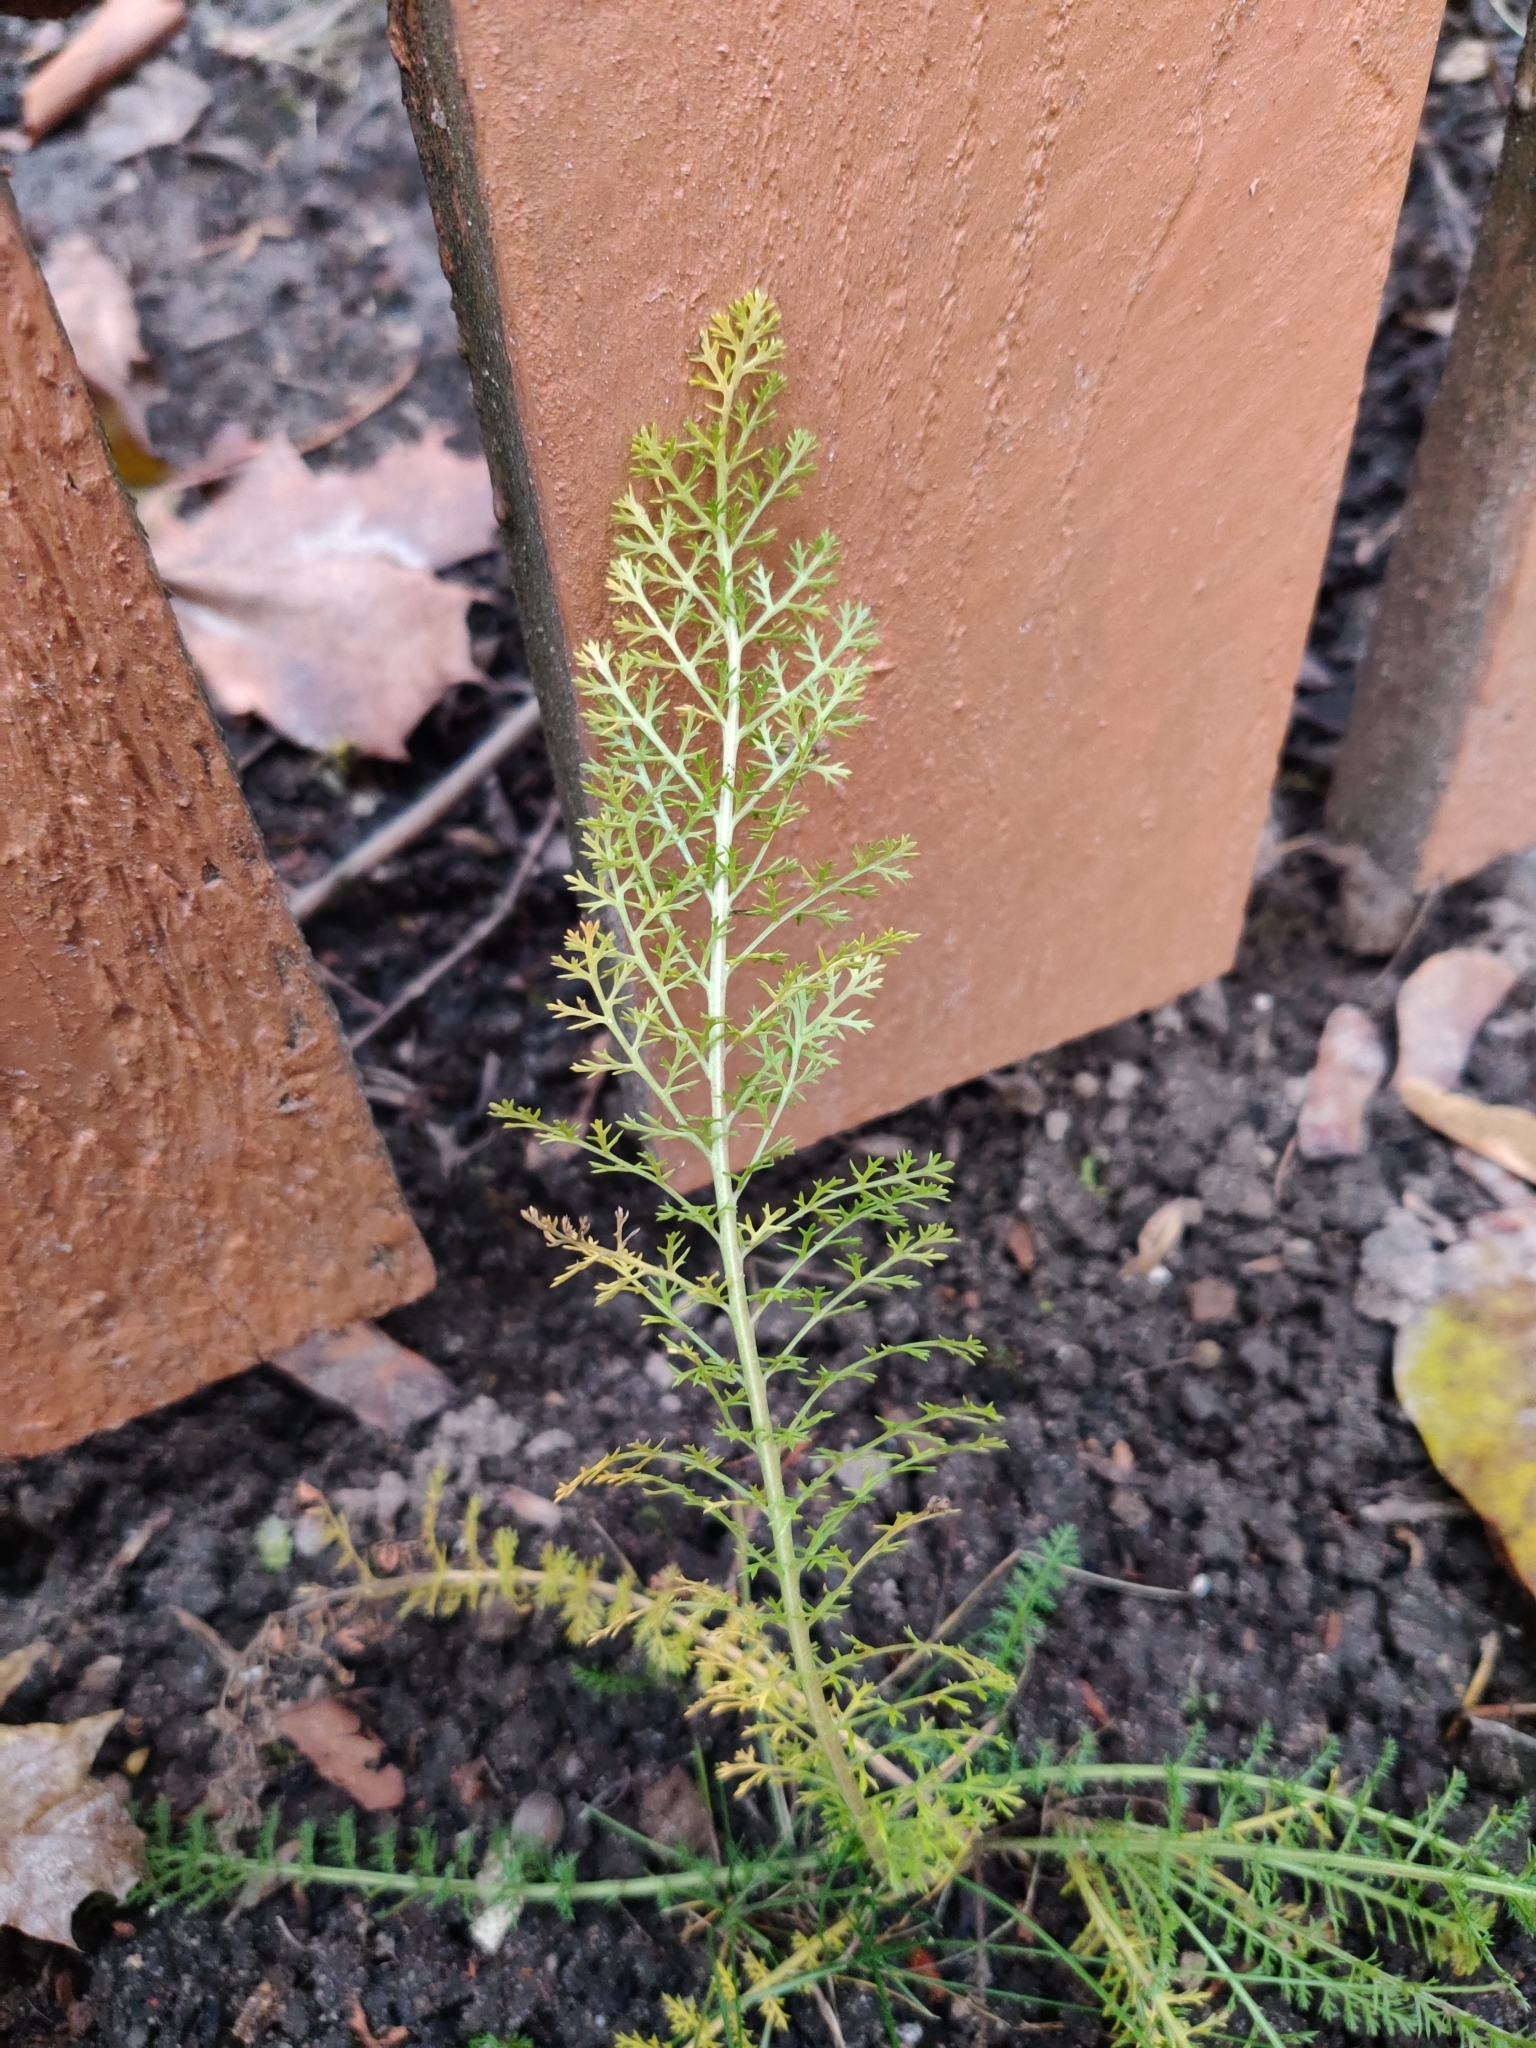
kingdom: Plantae
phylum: Tracheophyta
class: Magnoliopsida
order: Asterales
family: Asteraceae
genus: Achillea
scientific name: Achillea millefolium
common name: Yarrow
